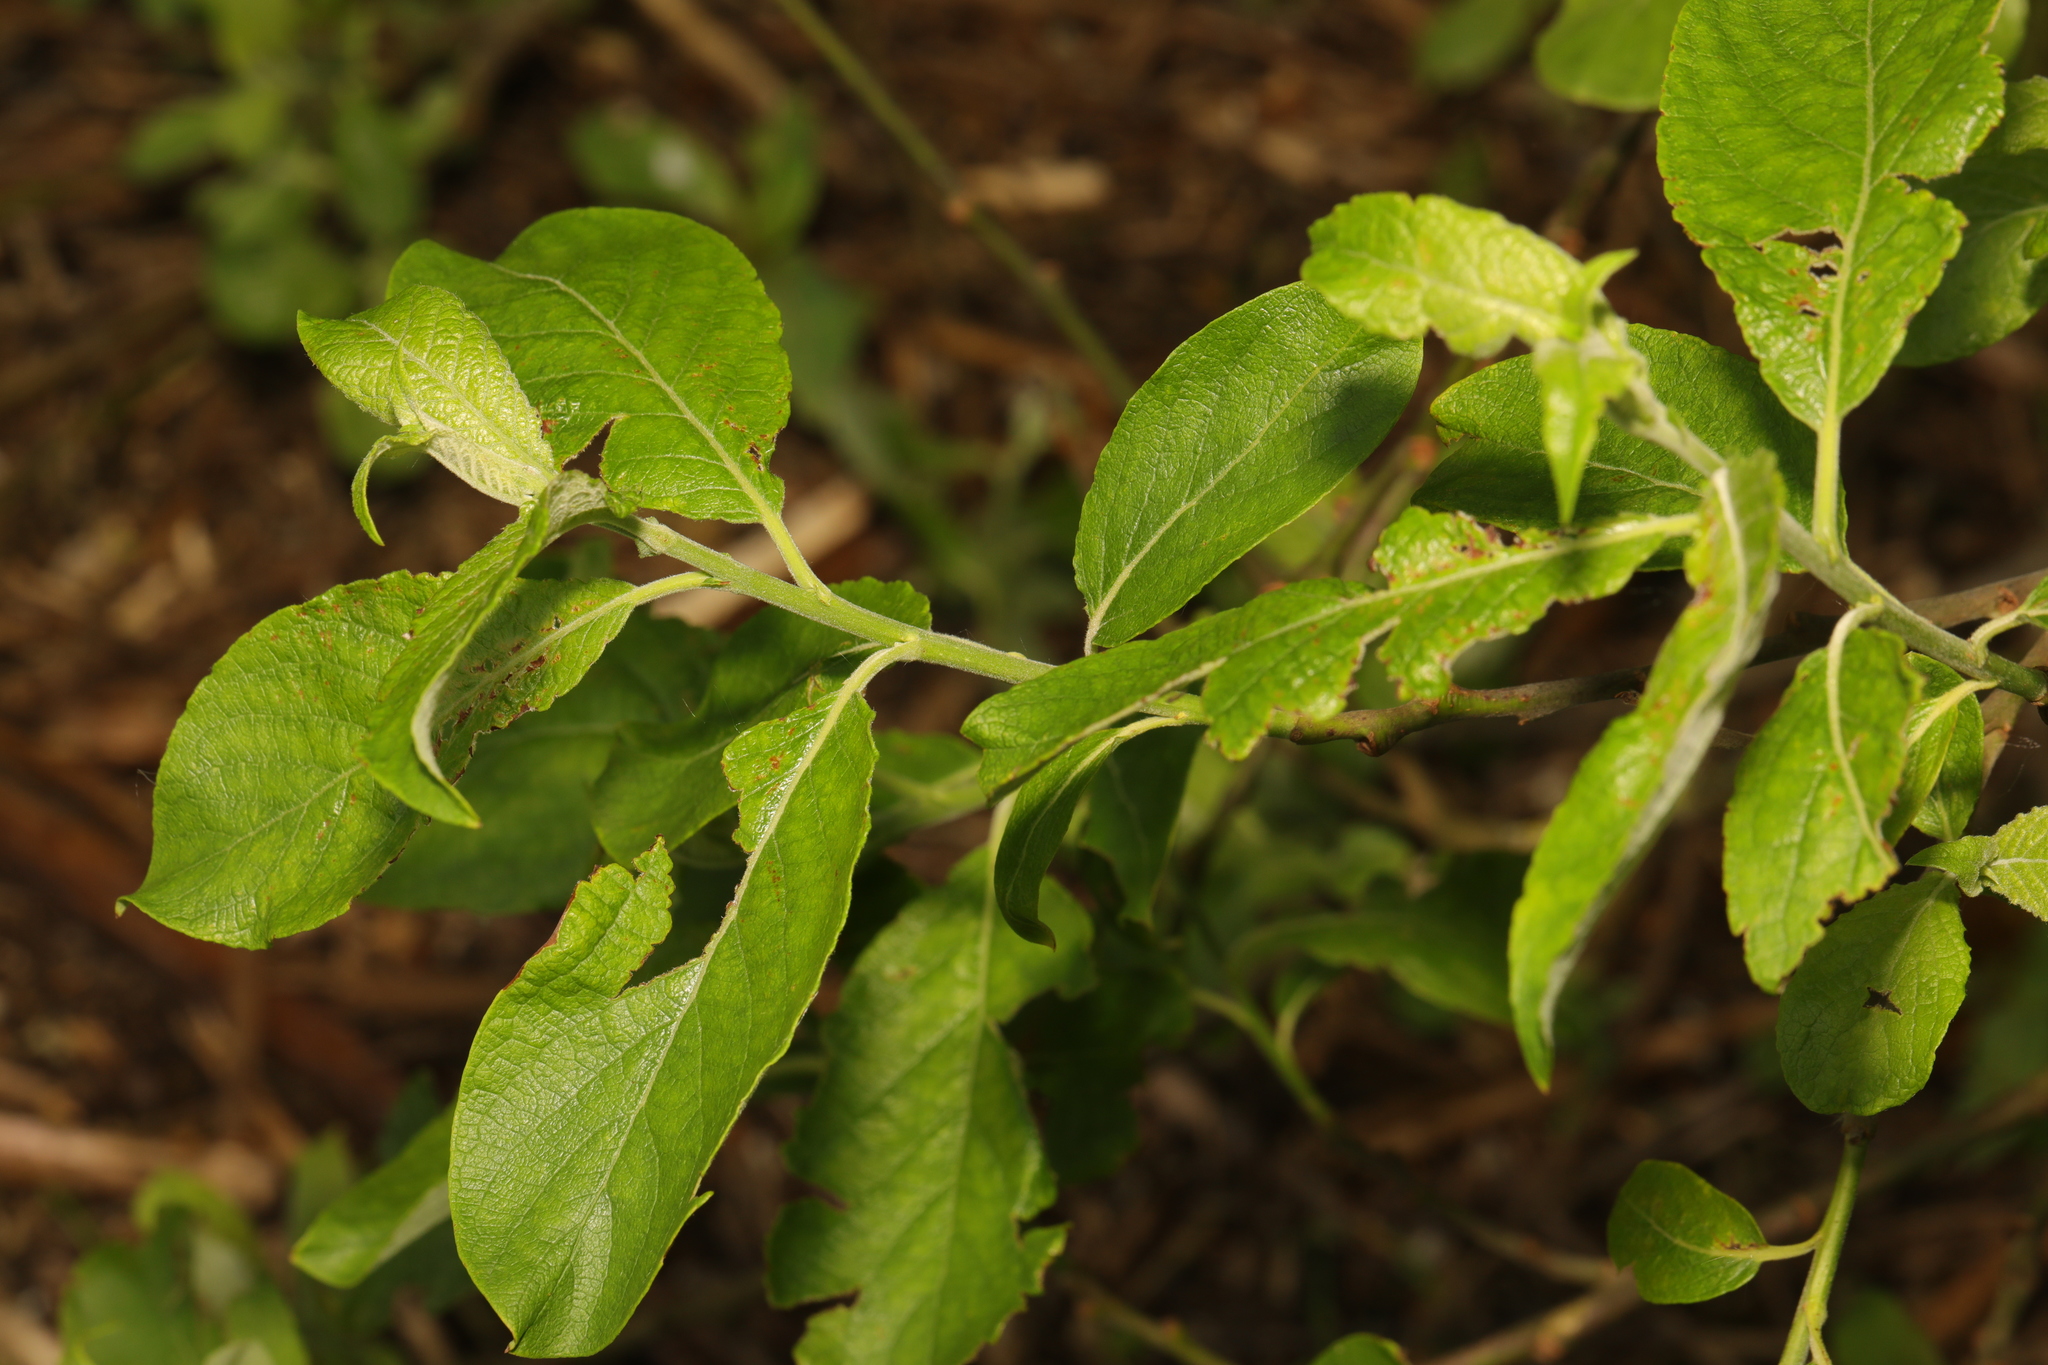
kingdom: Plantae
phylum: Tracheophyta
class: Magnoliopsida
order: Malpighiales
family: Salicaceae
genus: Salix
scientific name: Salix cinerea
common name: Common sallow
